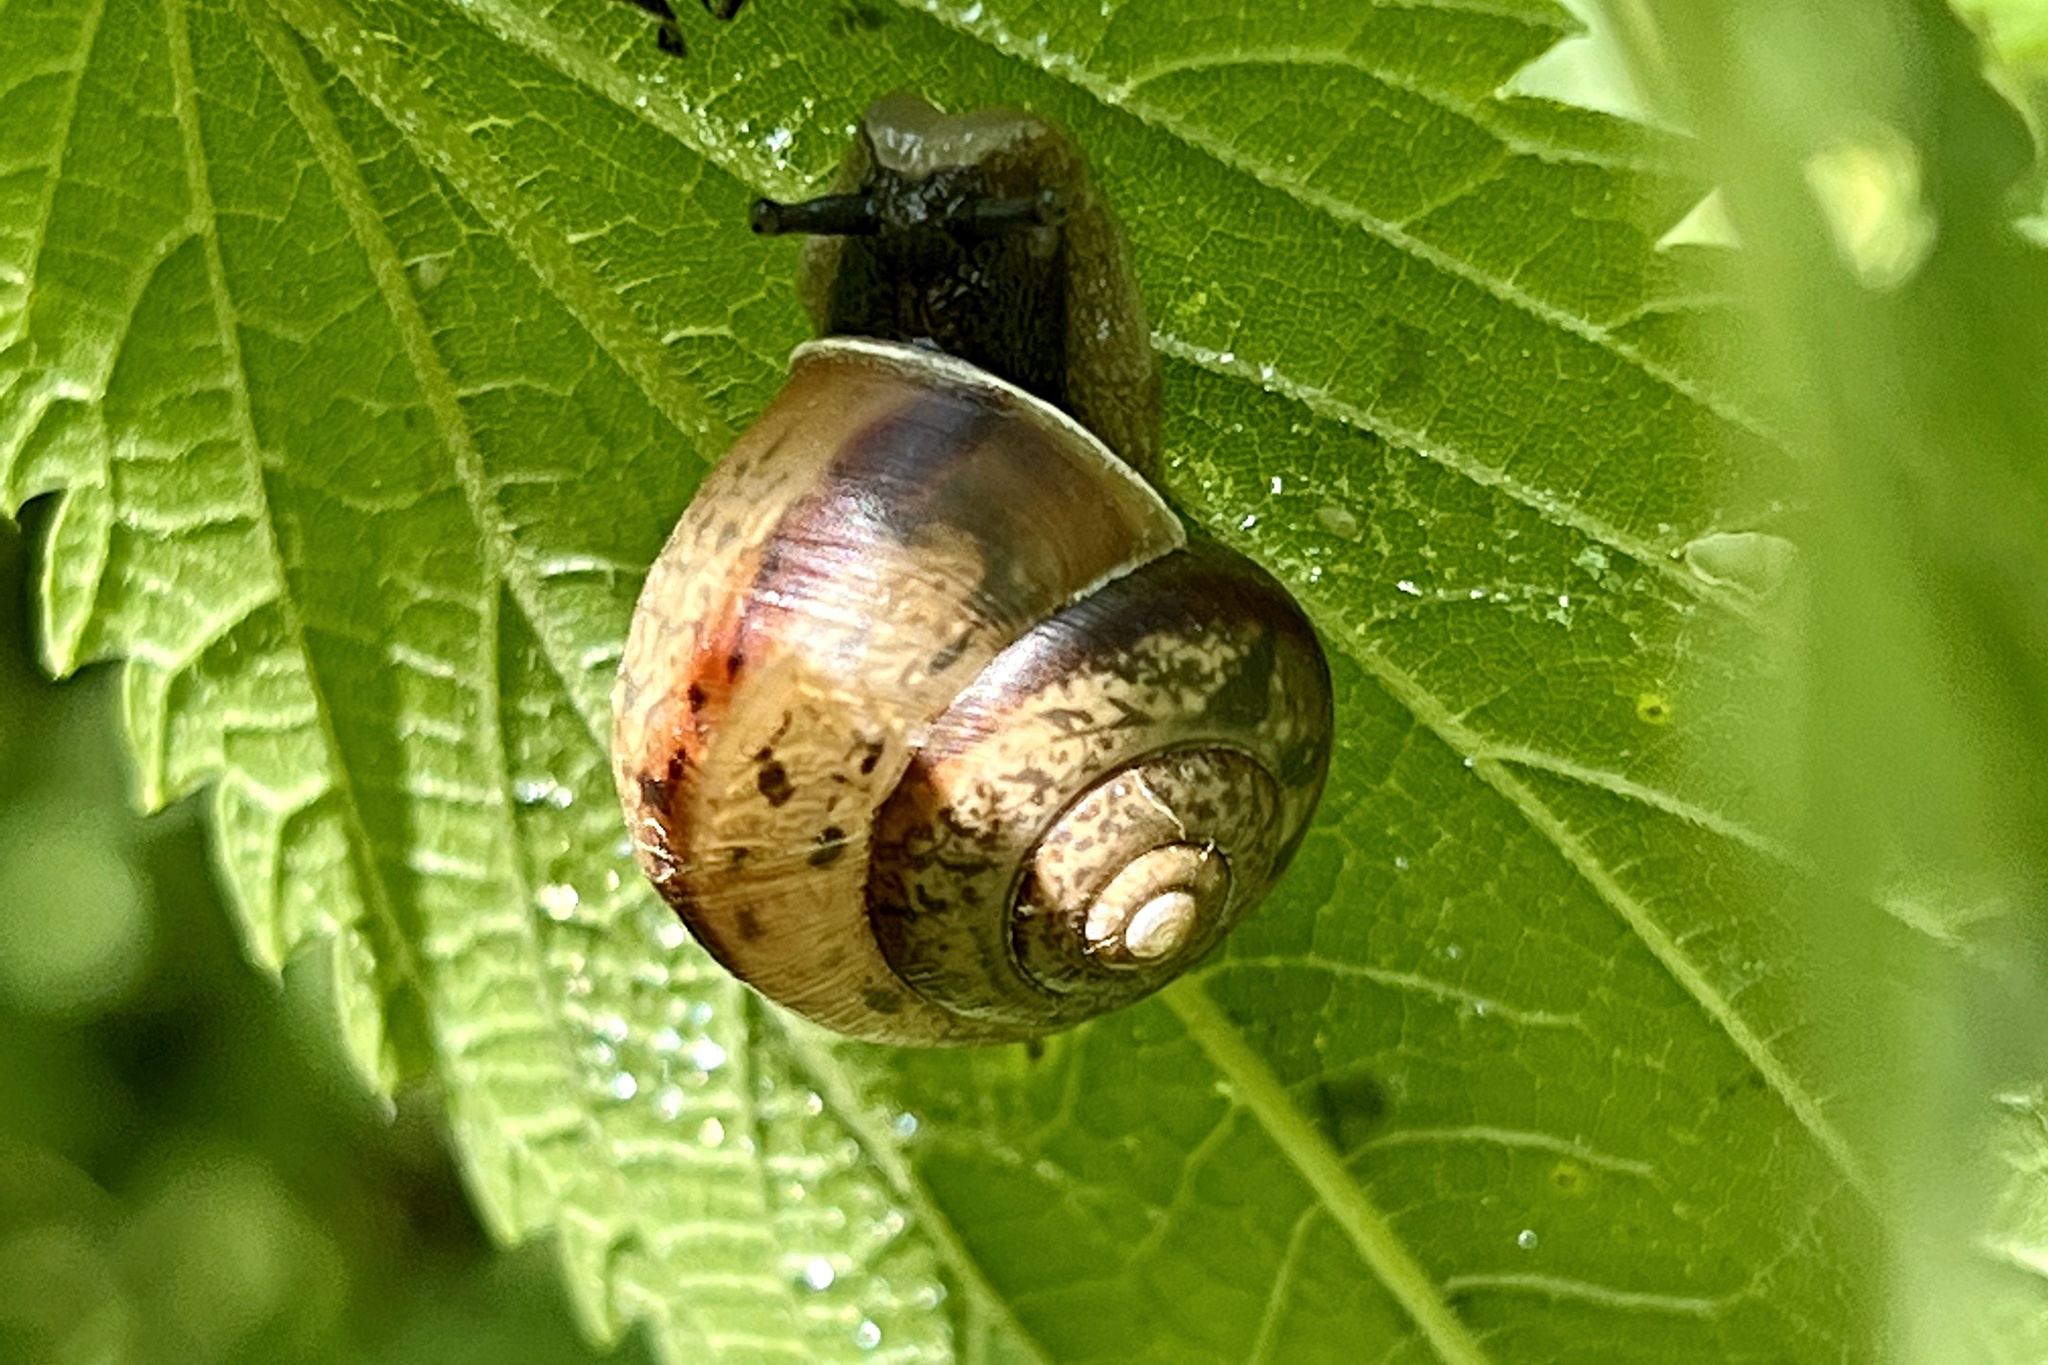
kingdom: Animalia
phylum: Mollusca
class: Gastropoda
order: Stylommatophora
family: Camaenidae
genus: Fruticicola
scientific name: Fruticicola fruticum
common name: Bush snail
